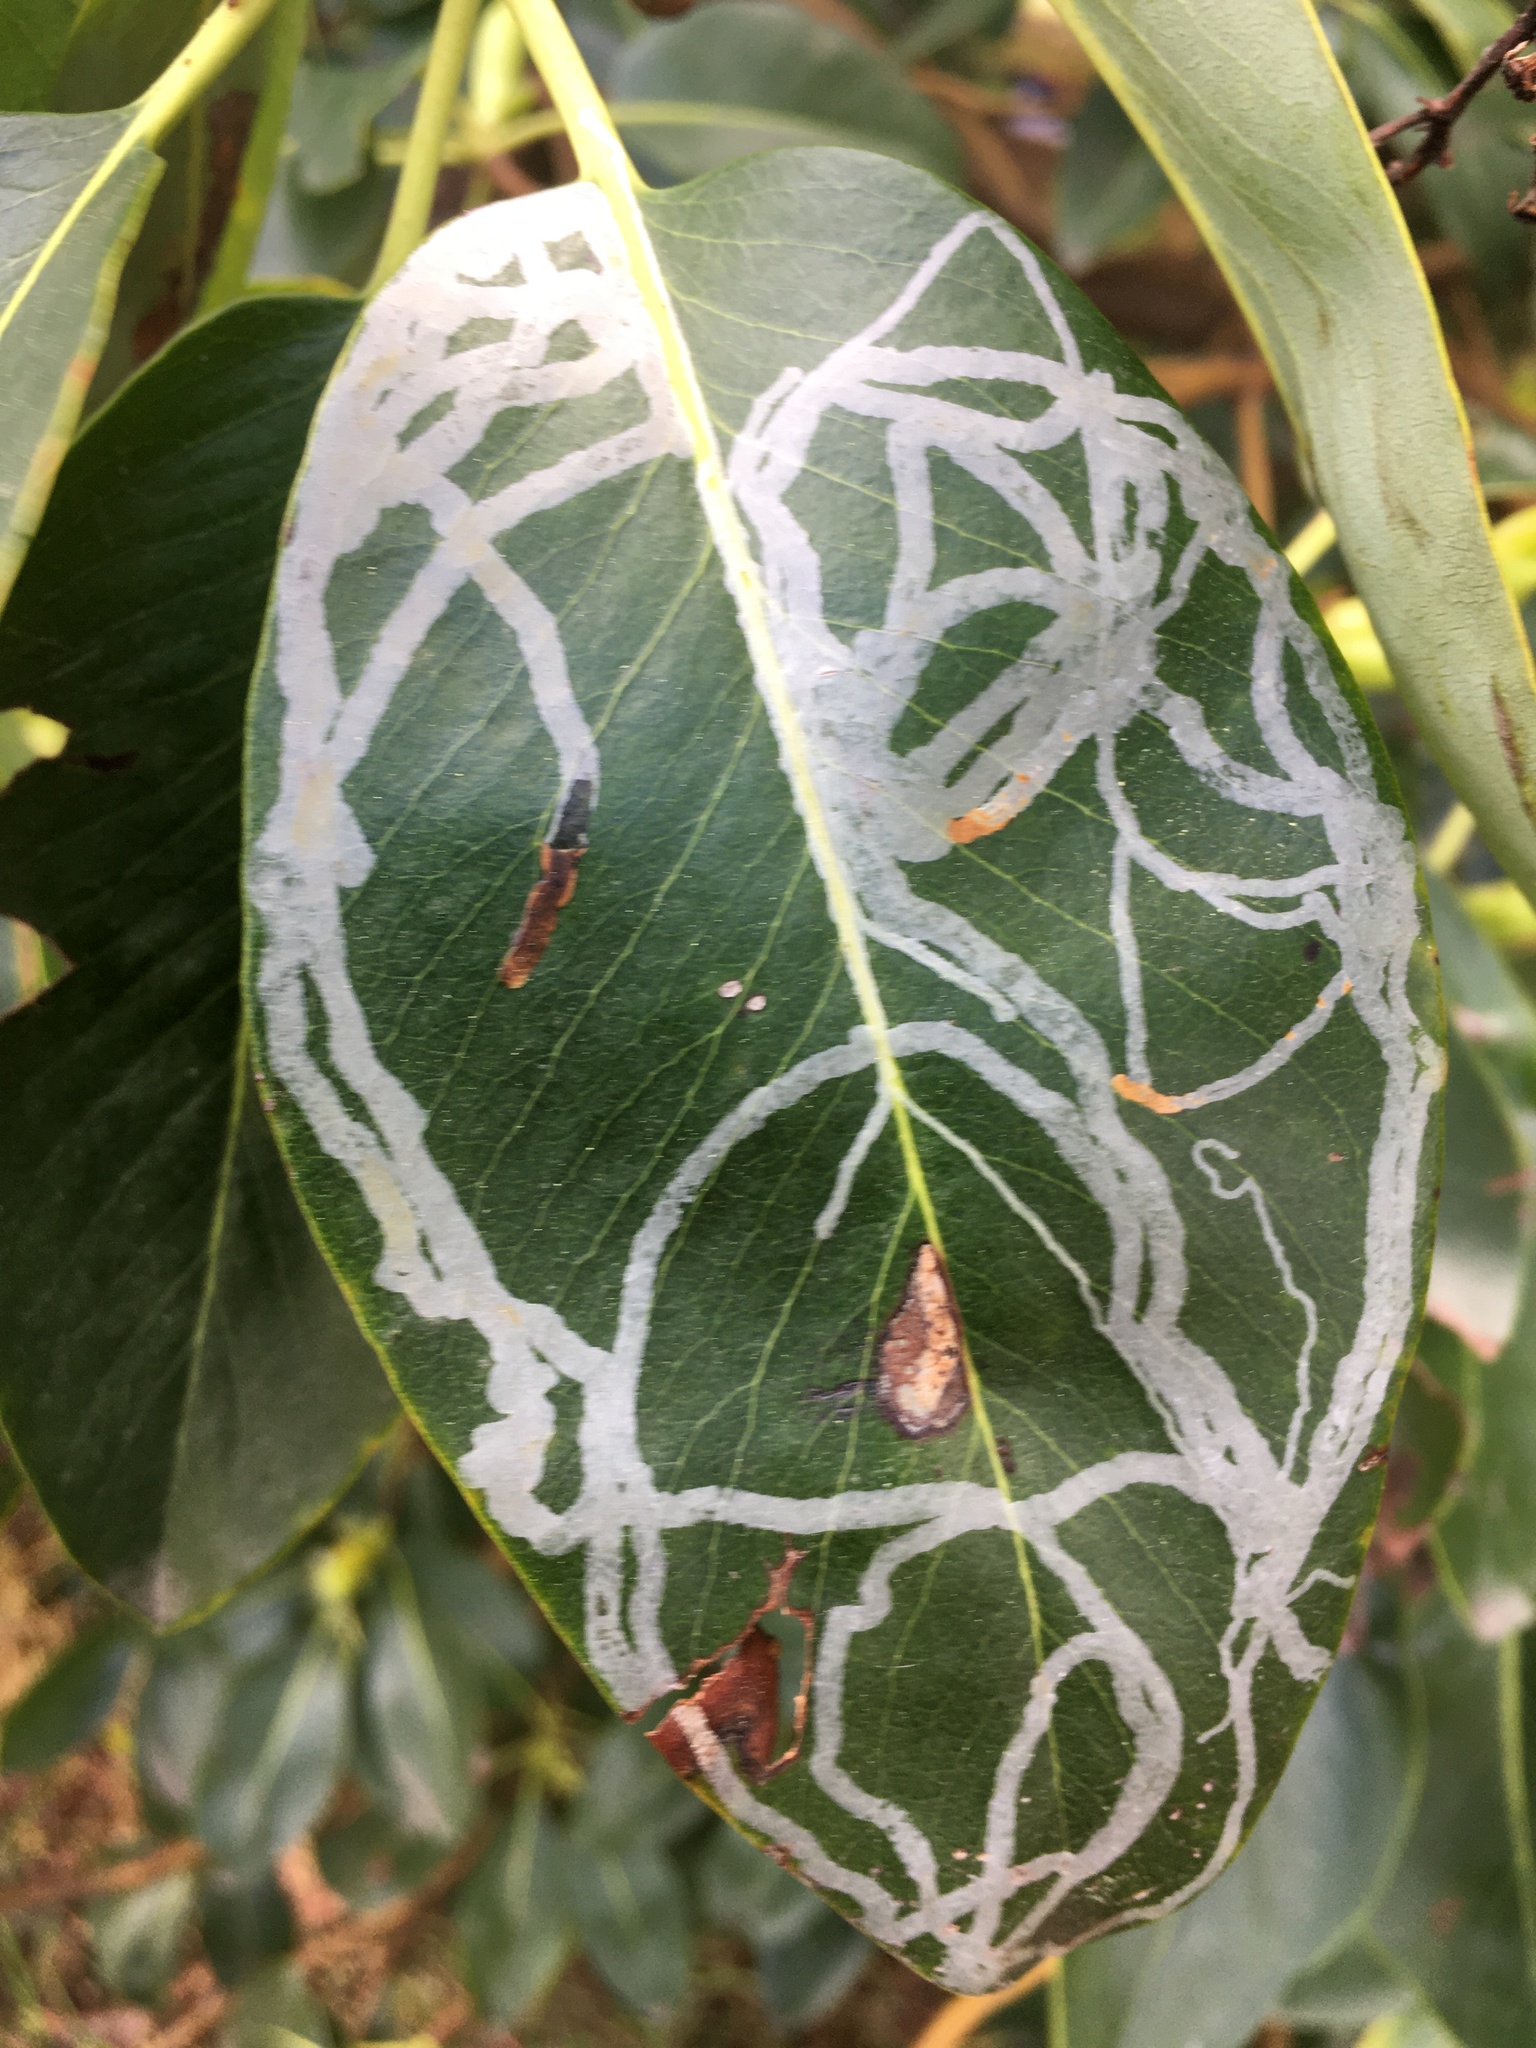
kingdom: Animalia
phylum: Arthropoda
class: Insecta
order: Lepidoptera
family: Gracillariidae
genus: Marmara
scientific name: Marmara arbutiella
